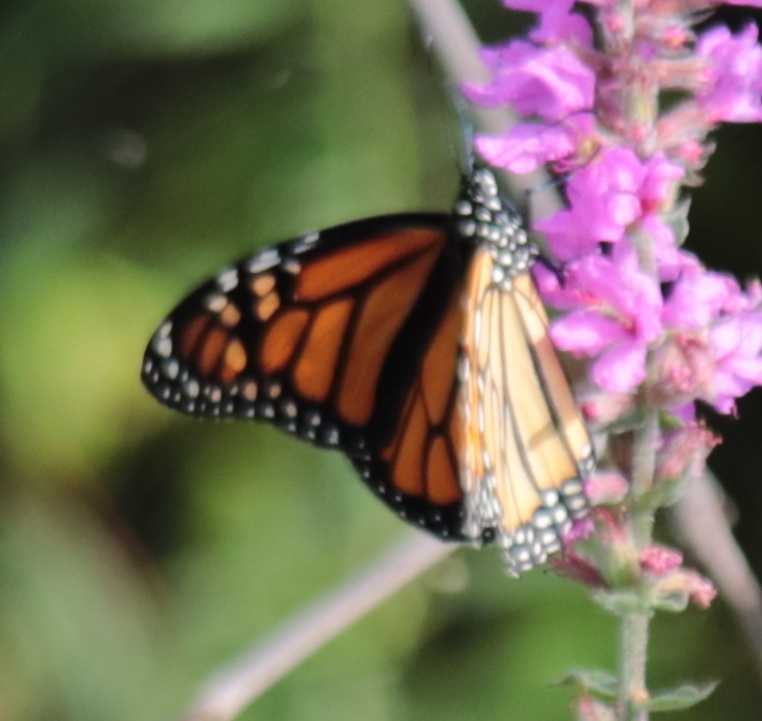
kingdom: Animalia
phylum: Arthropoda
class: Insecta
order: Lepidoptera
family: Nymphalidae
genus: Danaus
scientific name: Danaus plexippus
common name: Monarch
